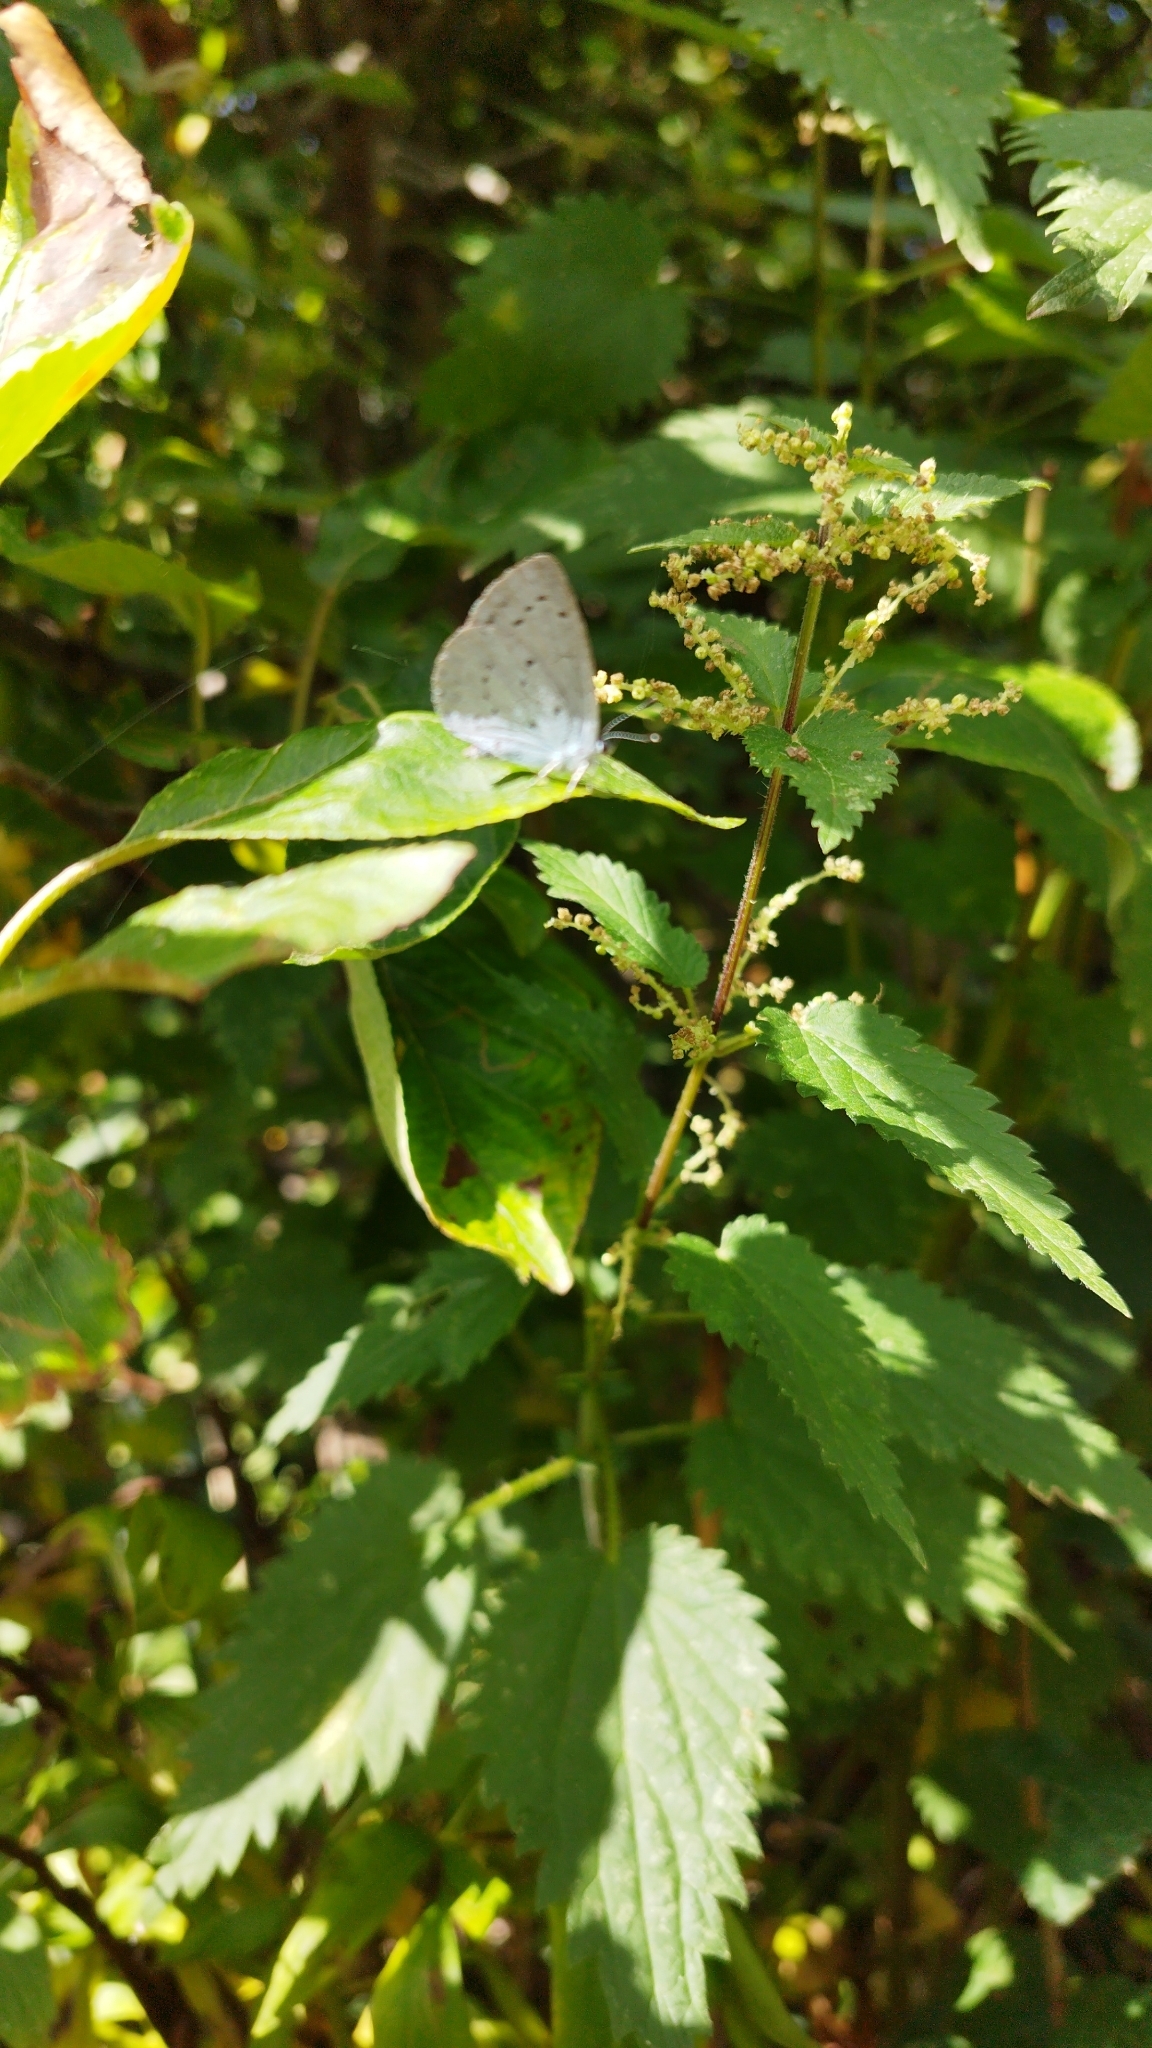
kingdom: Animalia
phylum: Arthropoda
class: Insecta
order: Lepidoptera
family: Lycaenidae
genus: Celastrina
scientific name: Celastrina argiolus
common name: Holly blue
